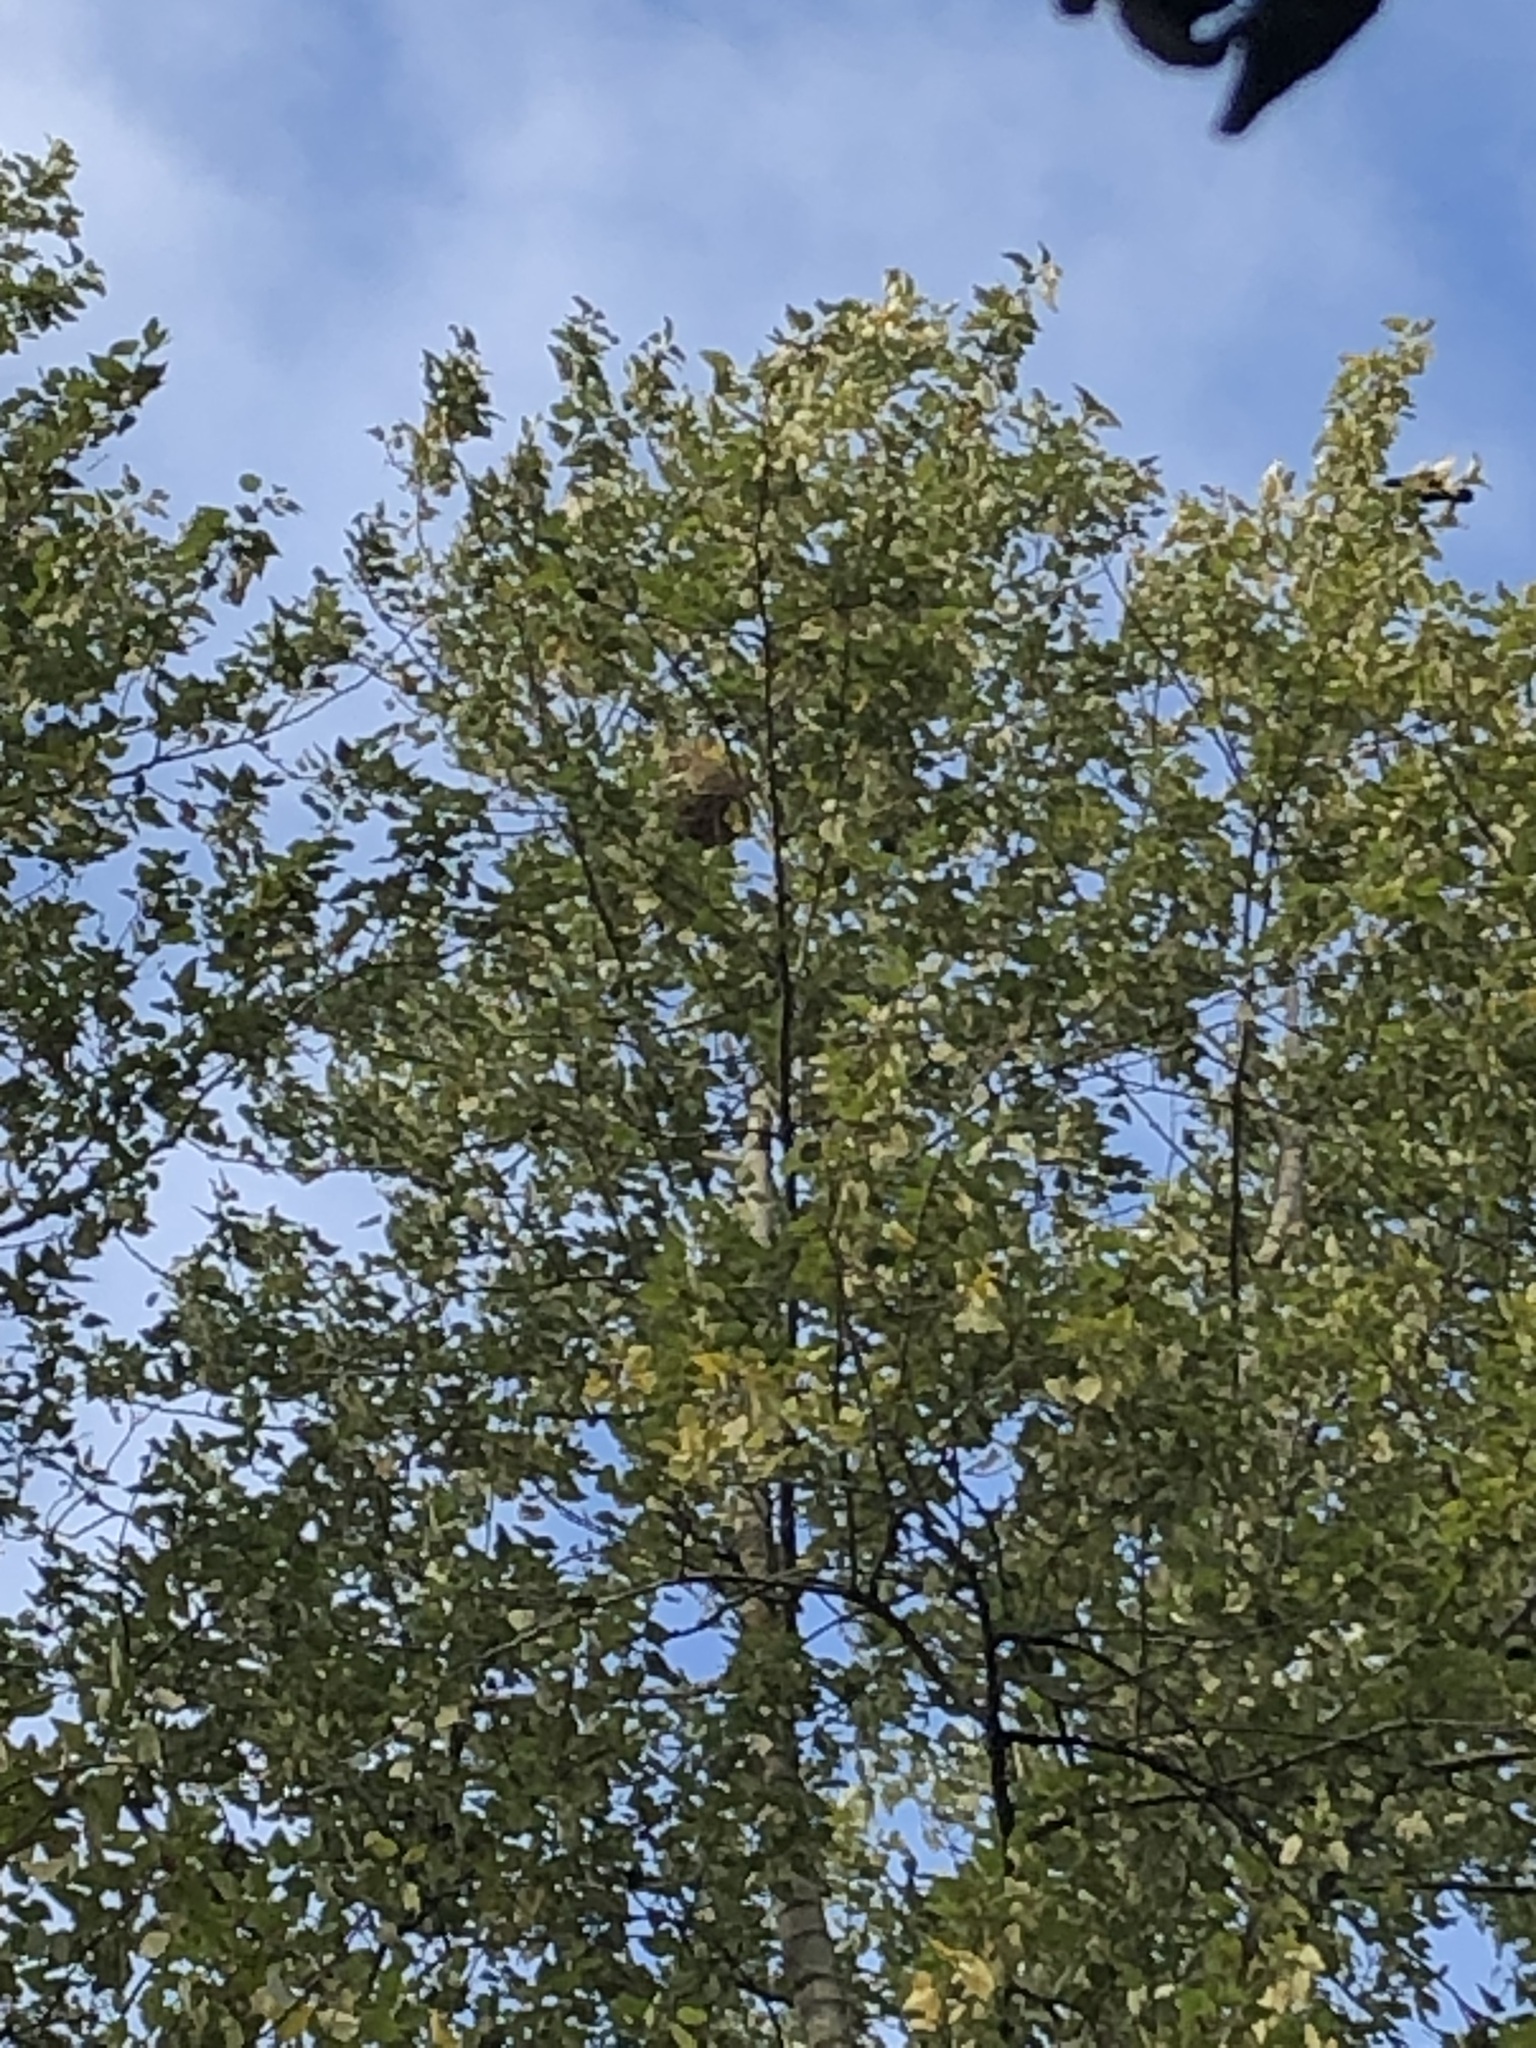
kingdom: Animalia
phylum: Arthropoda
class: Insecta
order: Hymenoptera
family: Vespidae
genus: Vespa
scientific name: Vespa velutina
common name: Asian hornet
